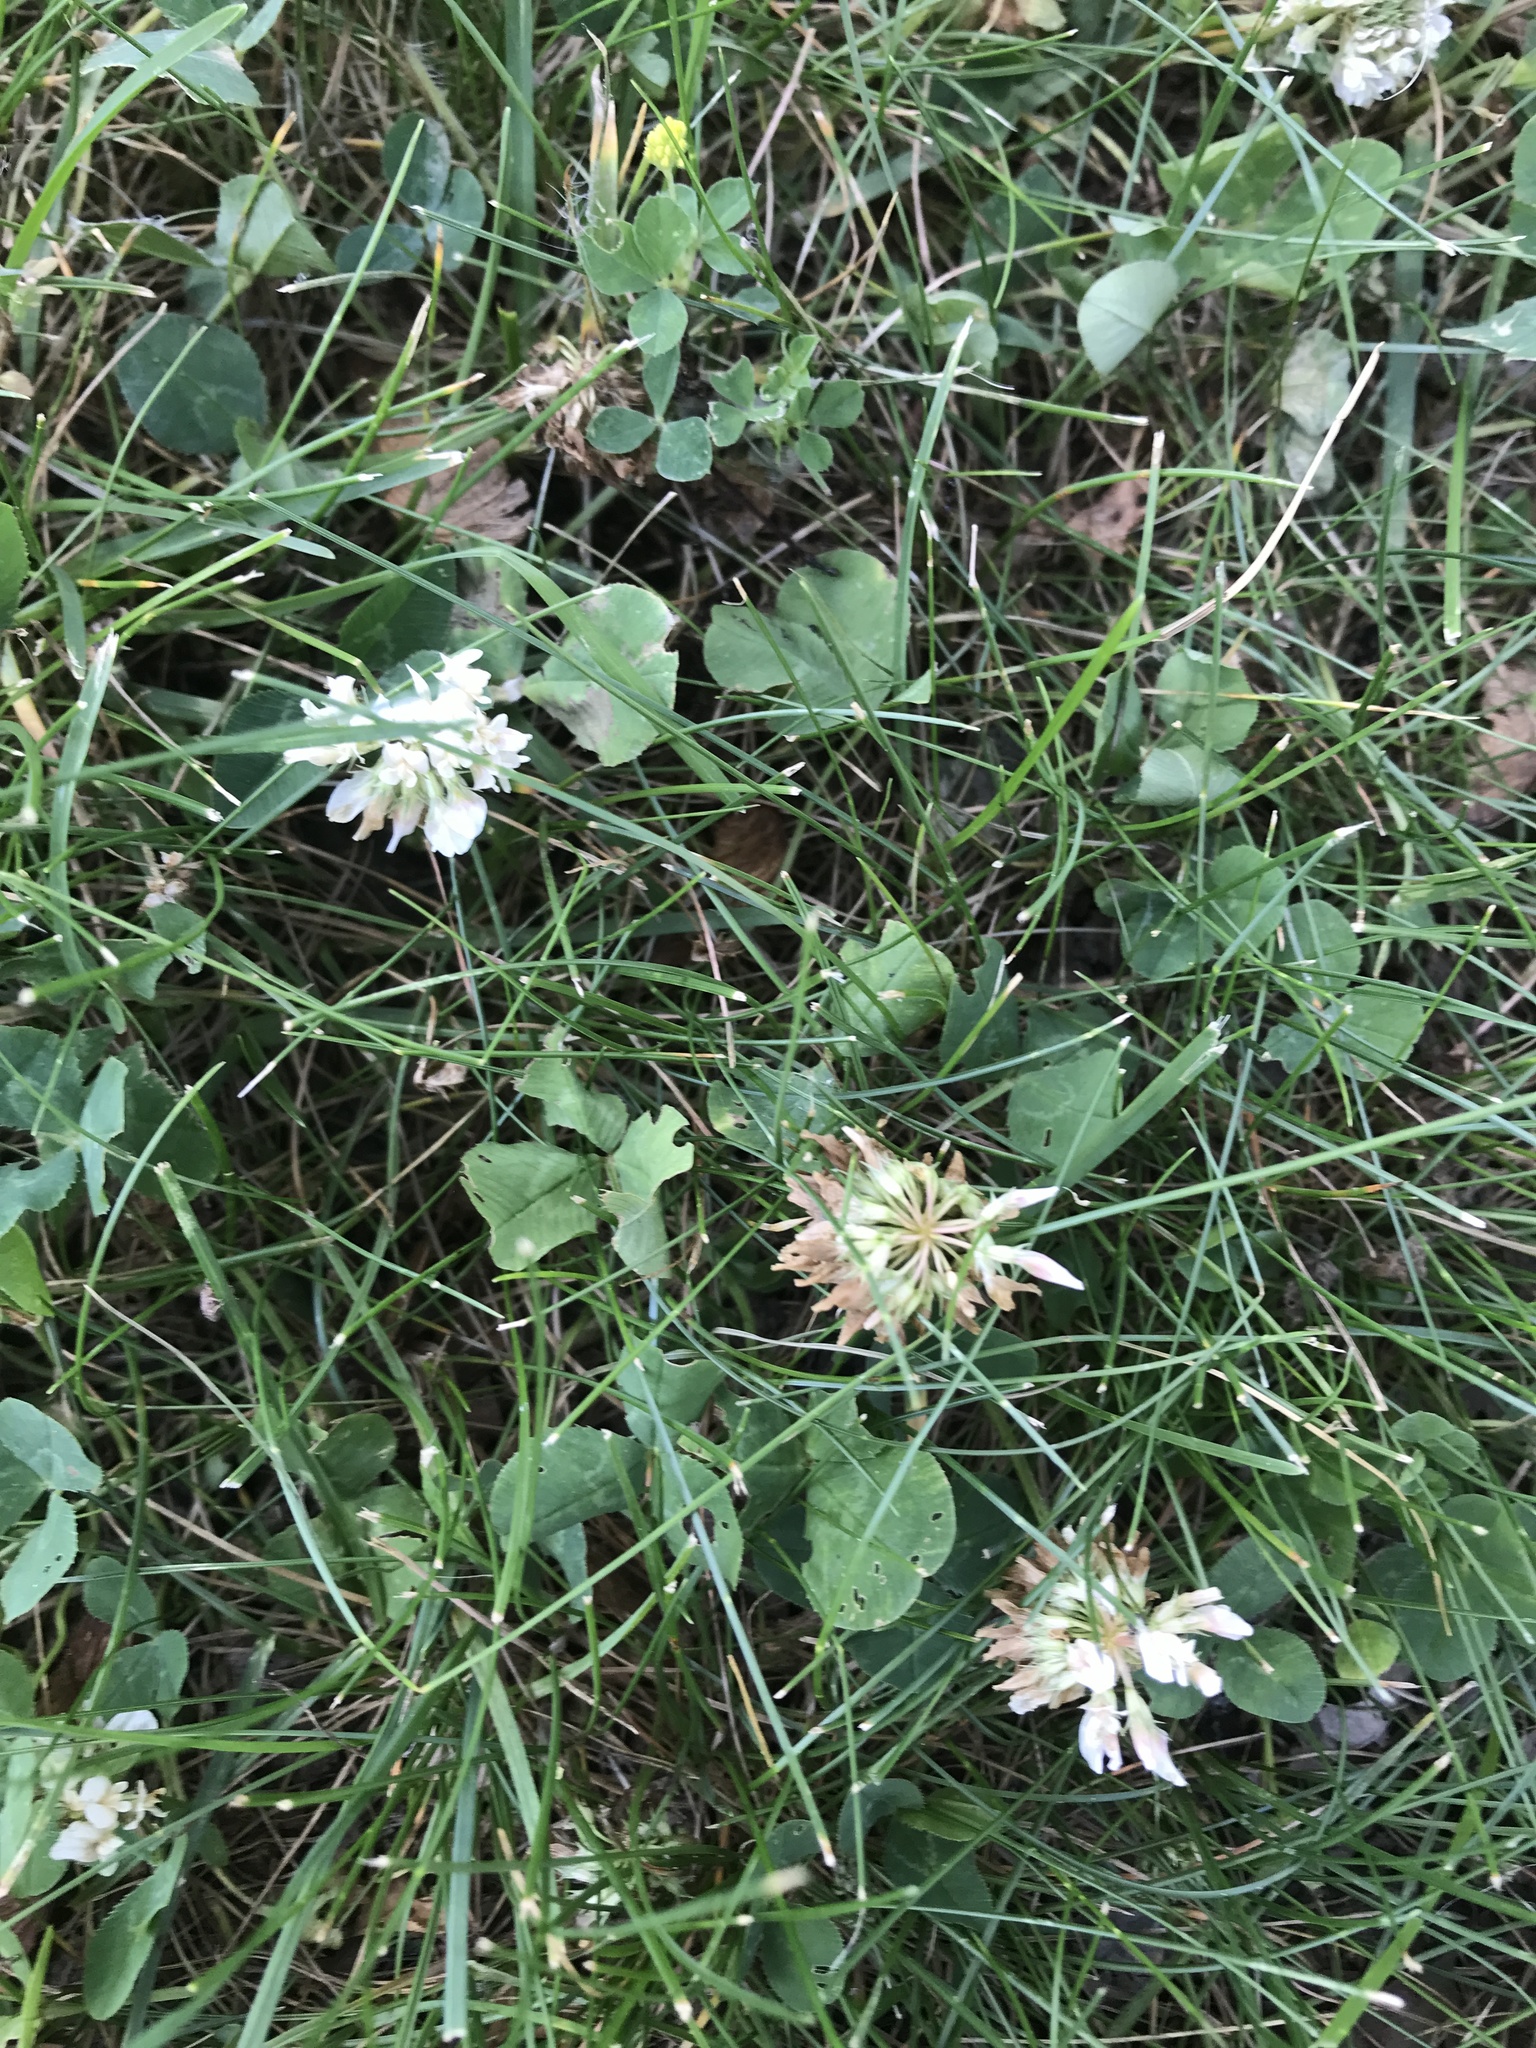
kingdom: Plantae
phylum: Tracheophyta
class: Magnoliopsida
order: Fabales
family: Fabaceae
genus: Trifolium
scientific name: Trifolium repens
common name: White clover
